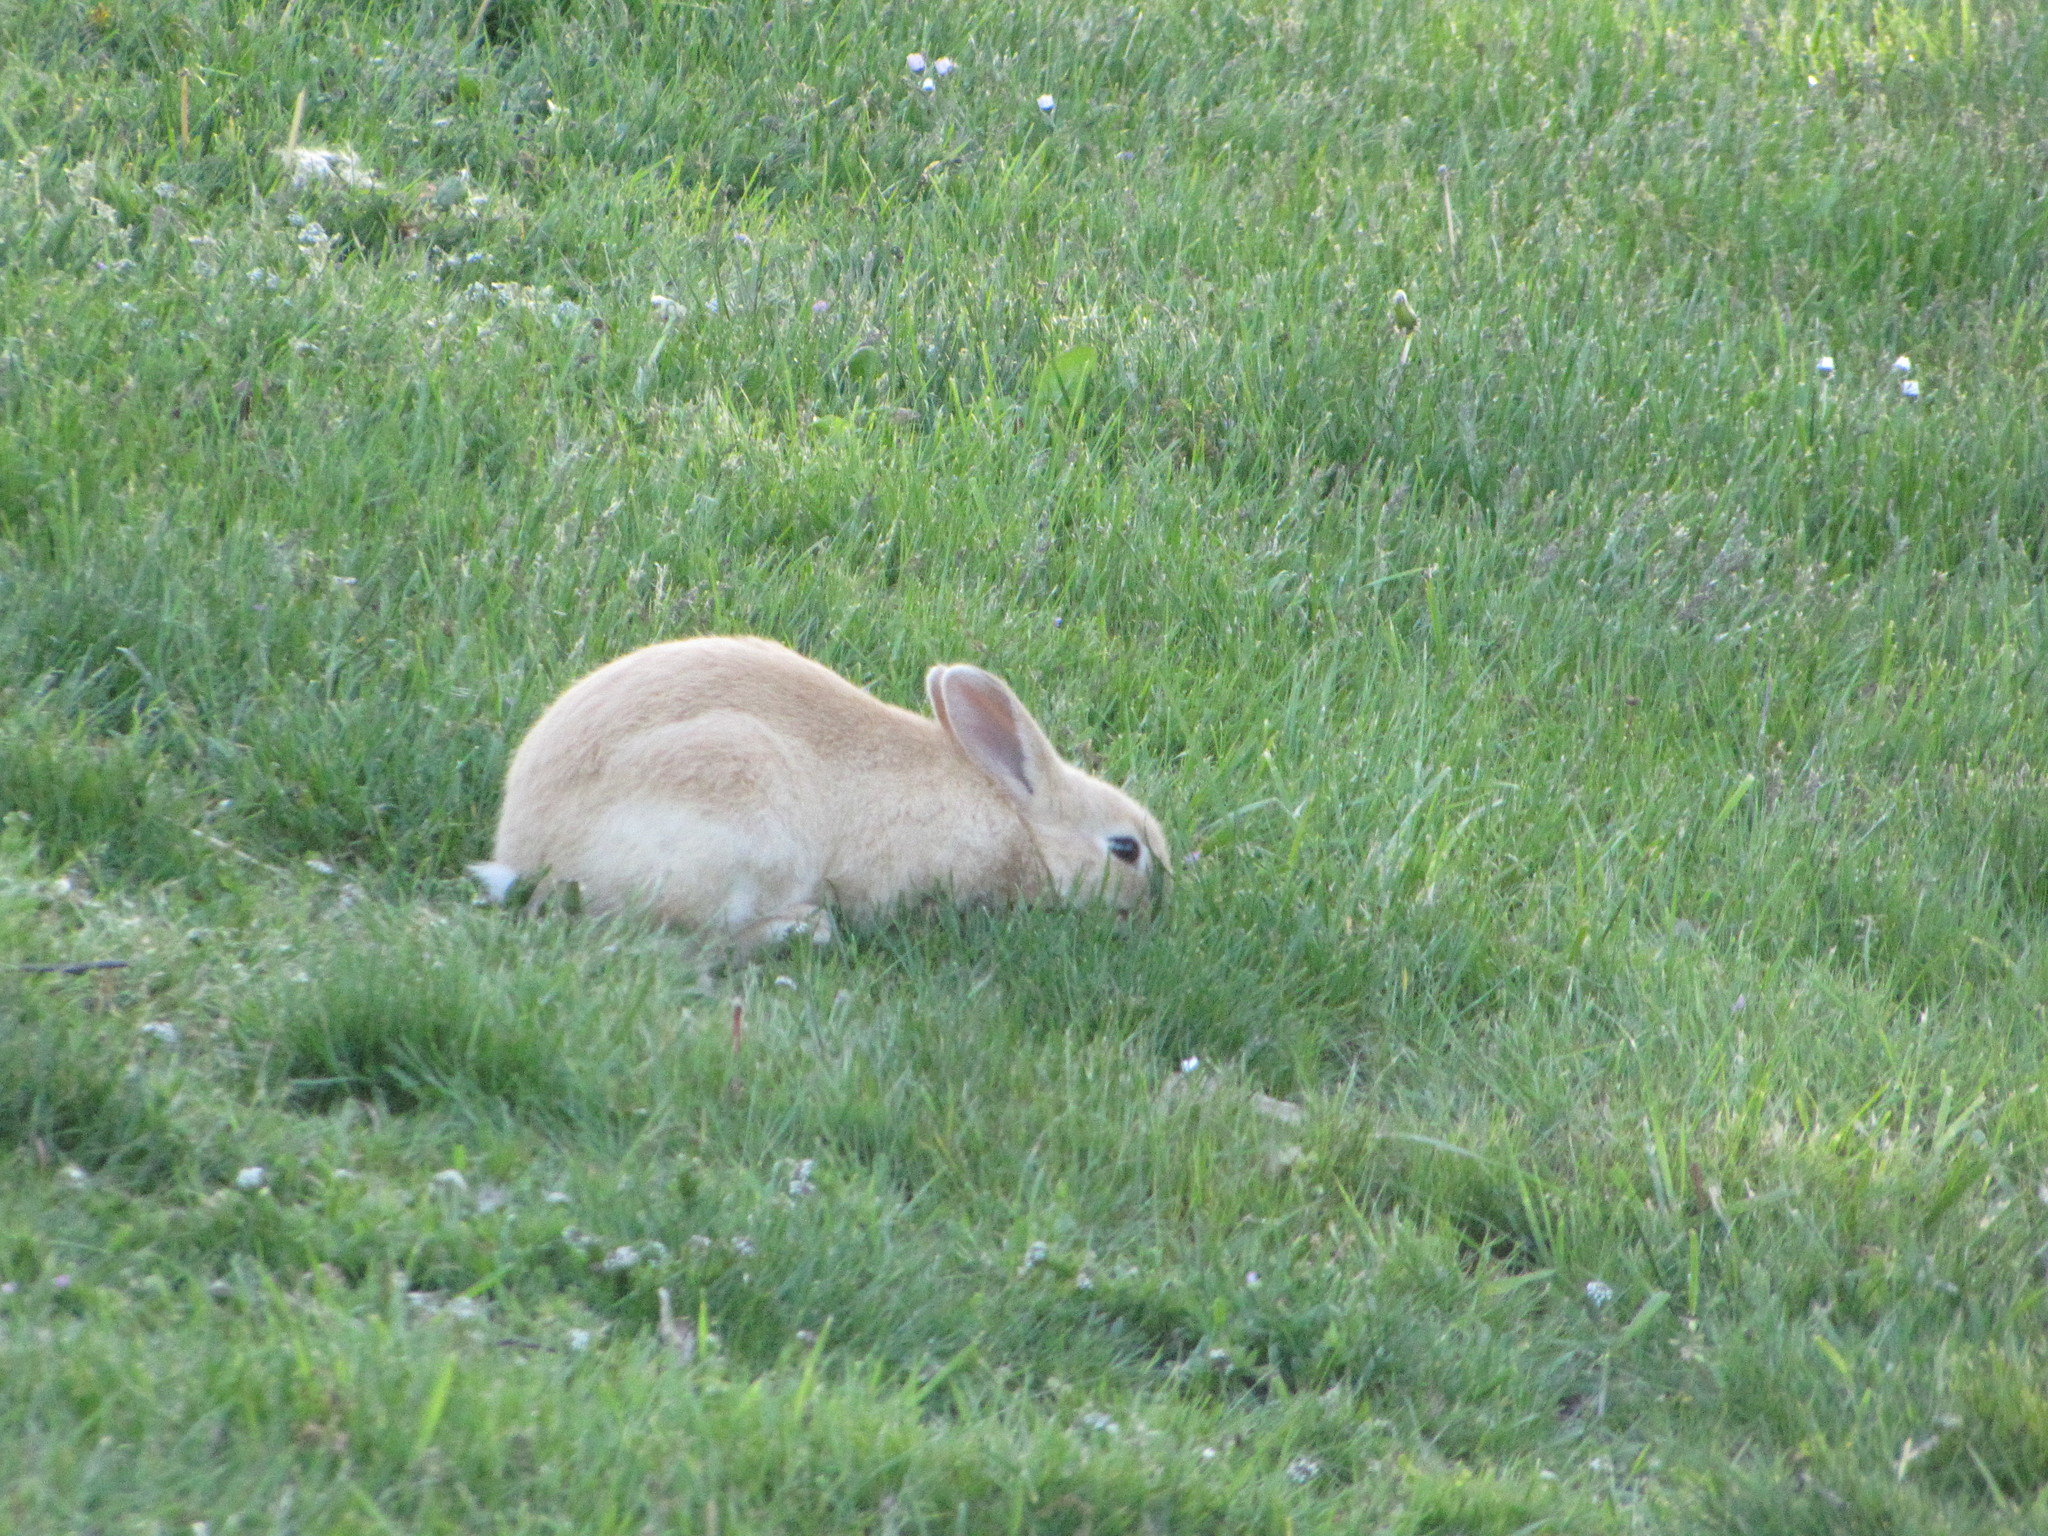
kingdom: Animalia
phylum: Chordata
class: Mammalia
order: Lagomorpha
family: Leporidae
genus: Oryctolagus
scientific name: Oryctolagus cuniculus
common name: European rabbit
